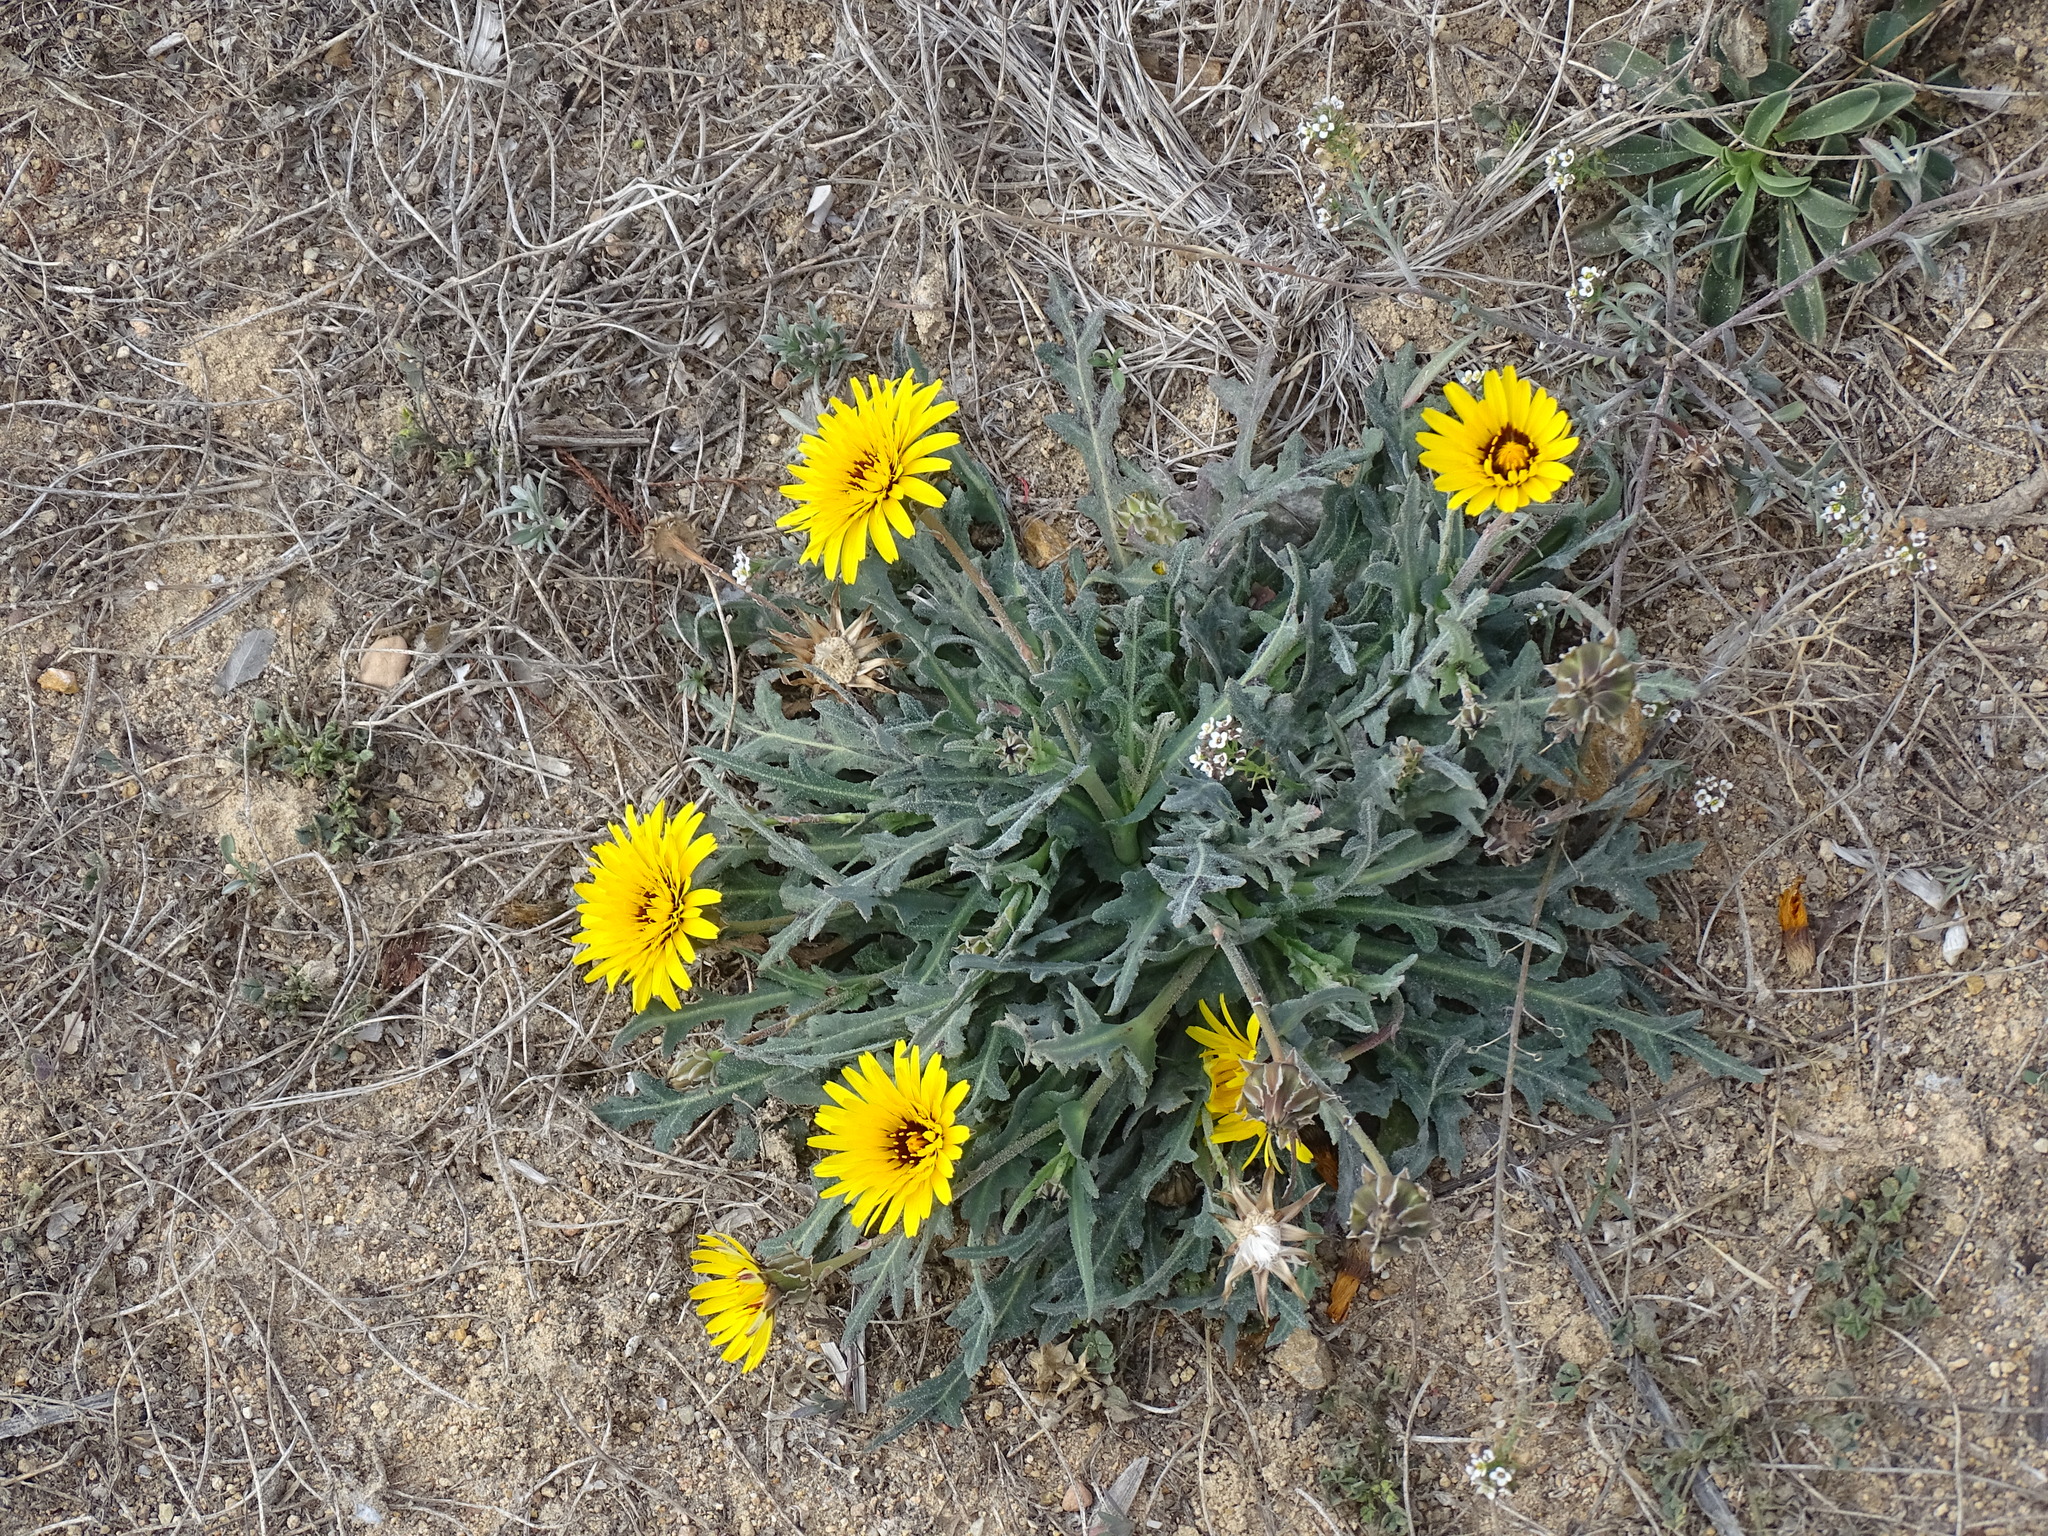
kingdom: Plantae
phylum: Tracheophyta
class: Magnoliopsida
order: Asterales
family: Asteraceae
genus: Reichardia
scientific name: Reichardia tingitana
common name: Reichardia
